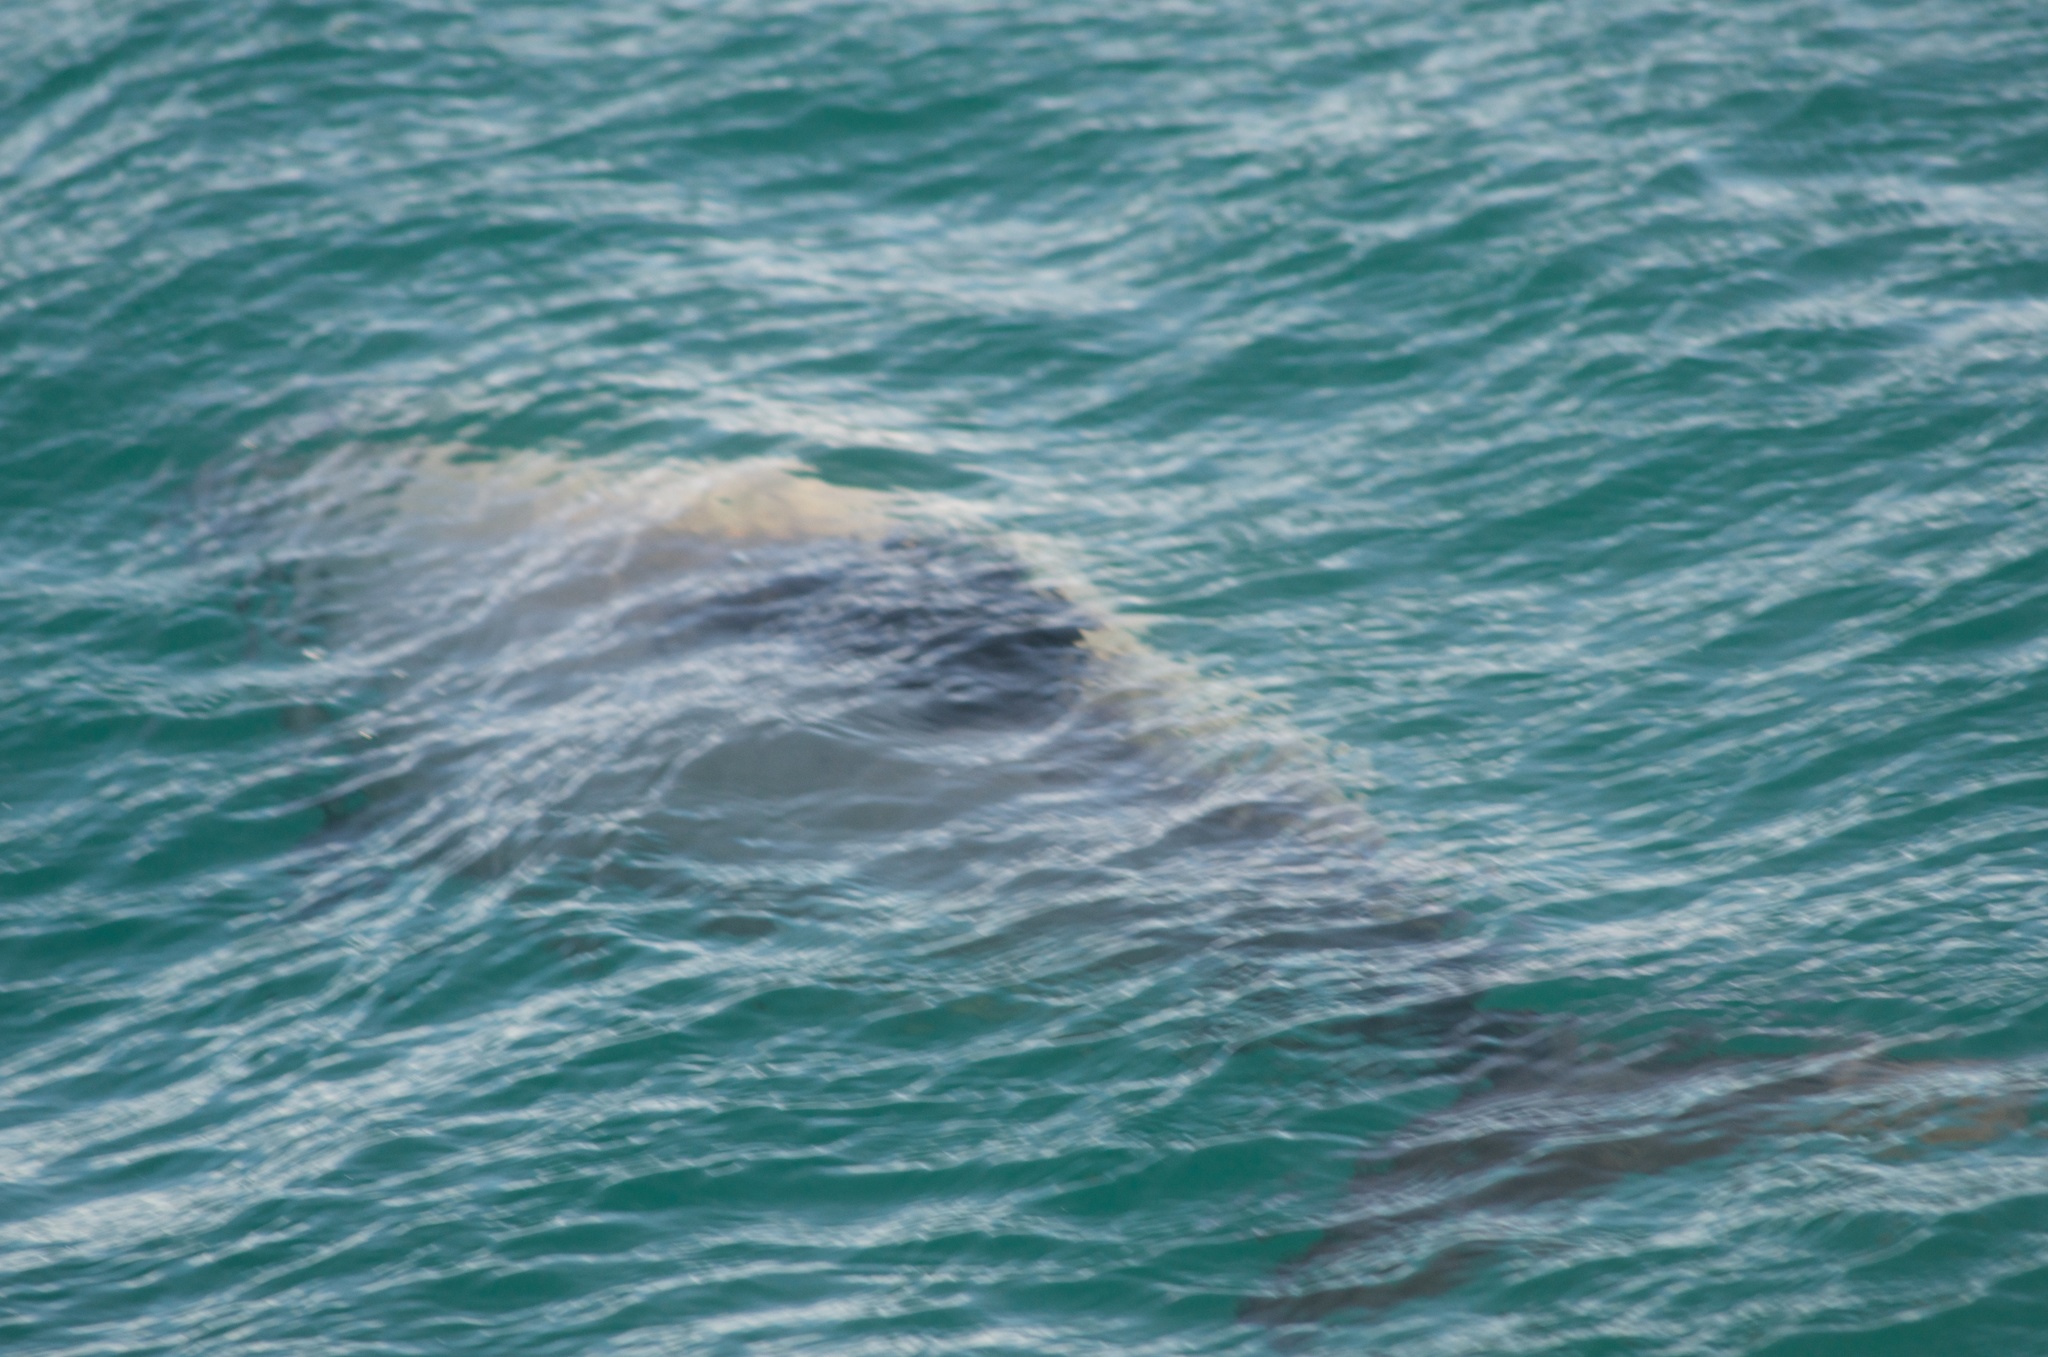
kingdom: Animalia
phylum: Chordata
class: Mammalia
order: Cetacea
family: Delphinidae
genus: Cephalorhynchus
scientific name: Cephalorhynchus hectori
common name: Hector's dolphin
